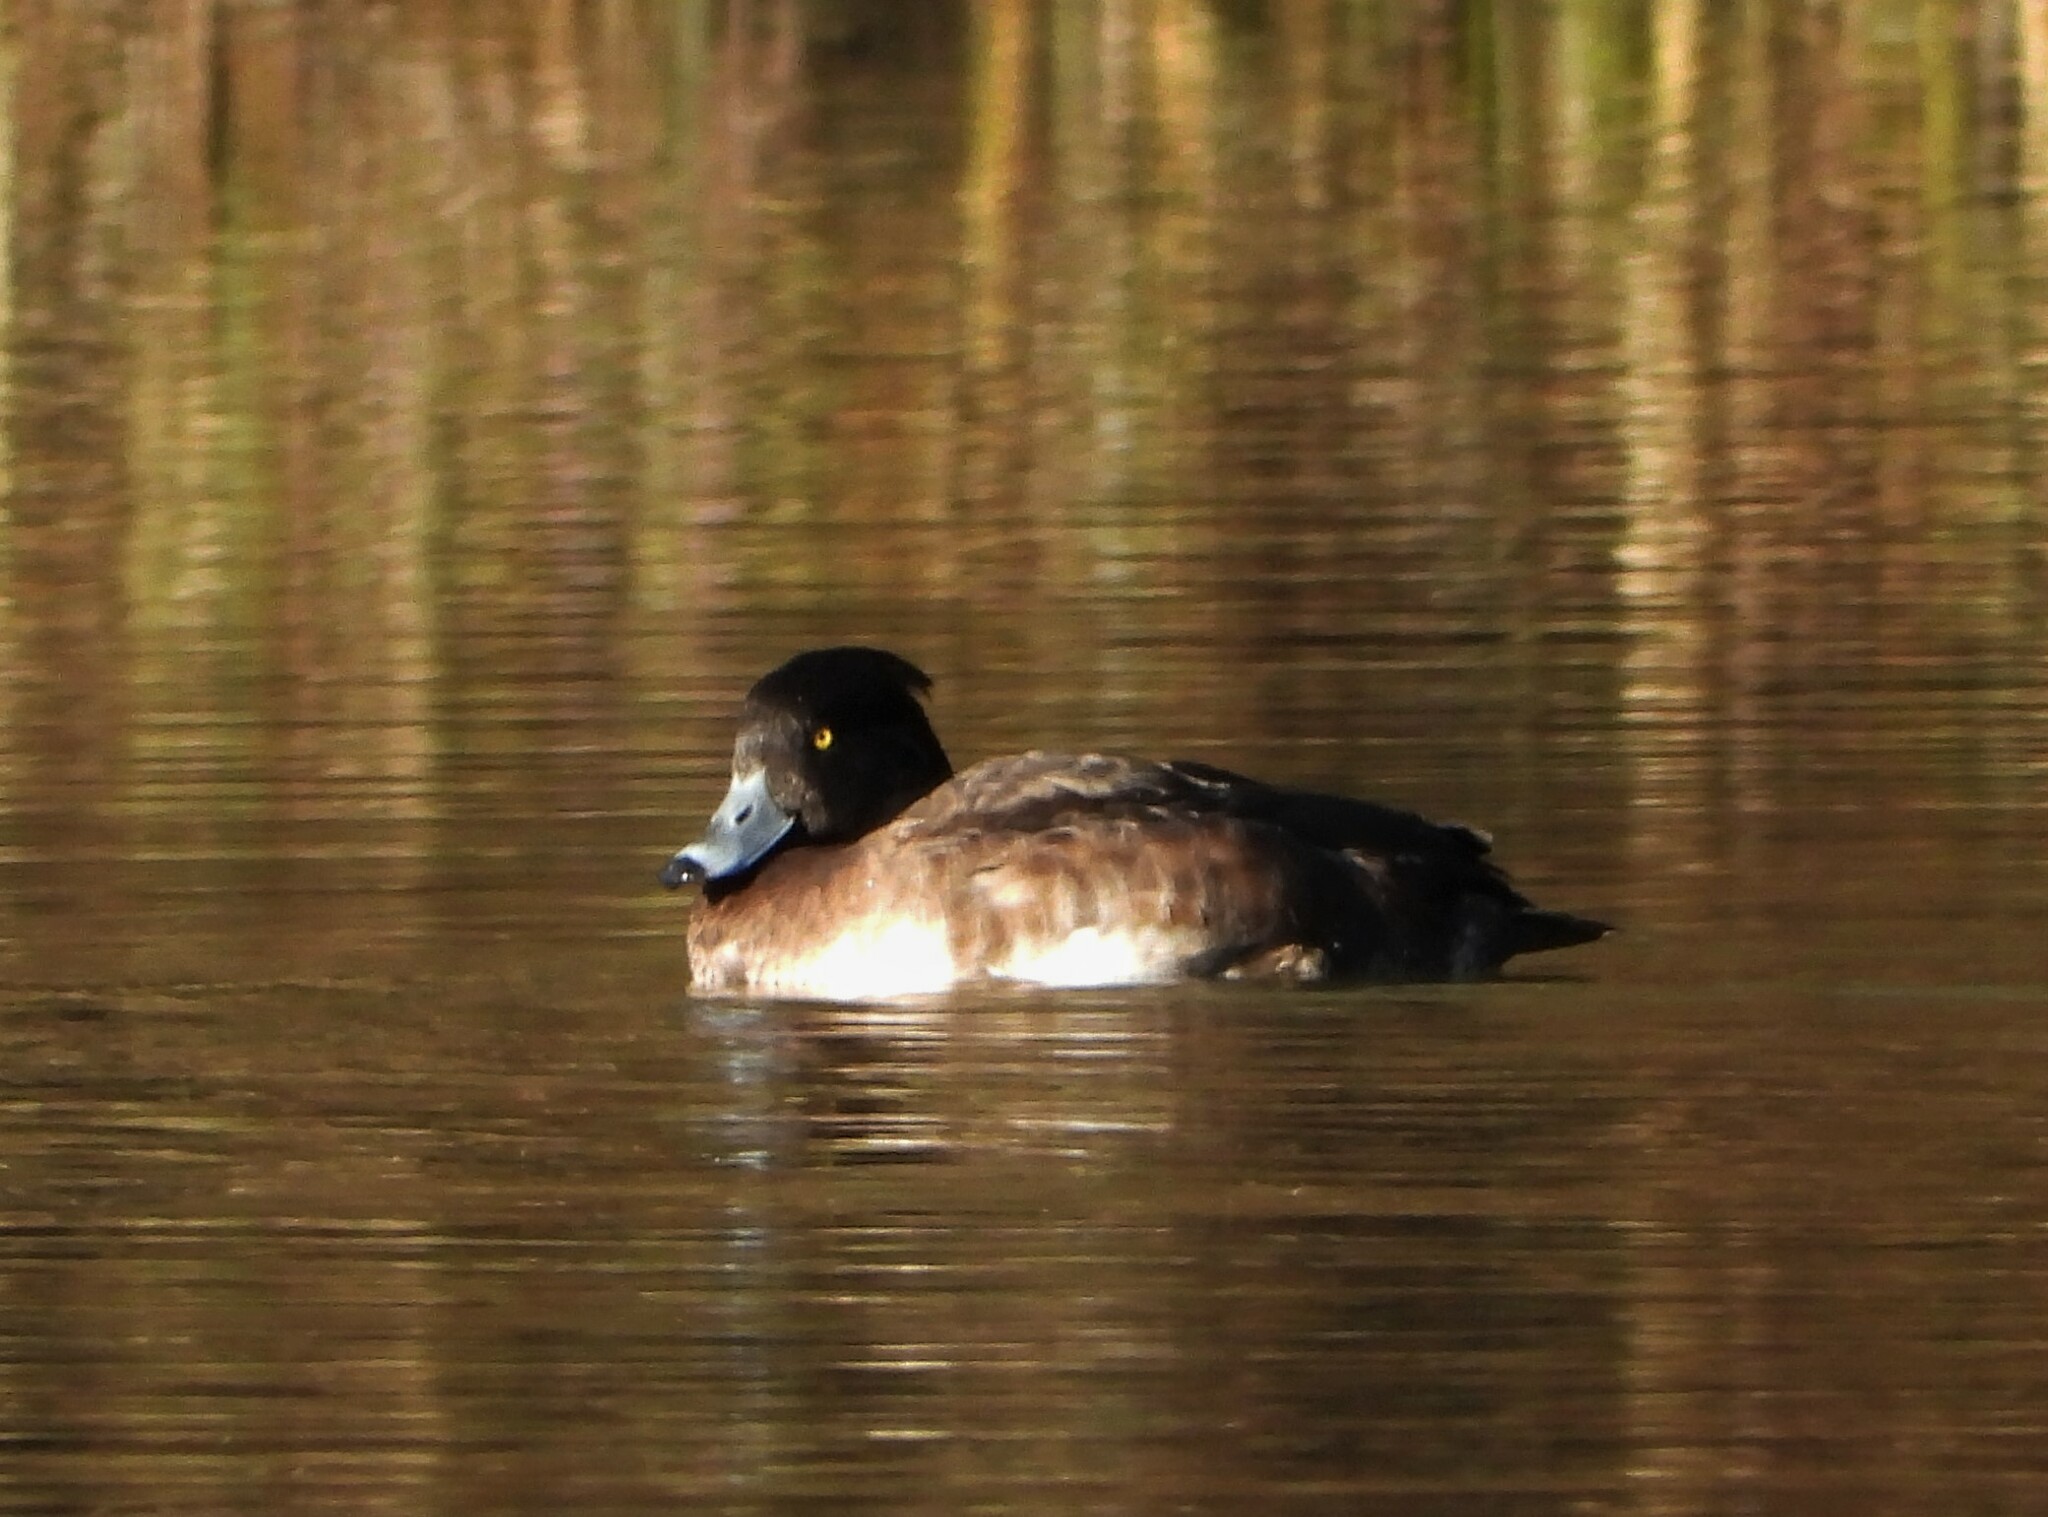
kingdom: Animalia
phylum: Chordata
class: Aves
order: Anseriformes
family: Anatidae
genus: Aythya
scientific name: Aythya fuligula
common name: Tufted duck
